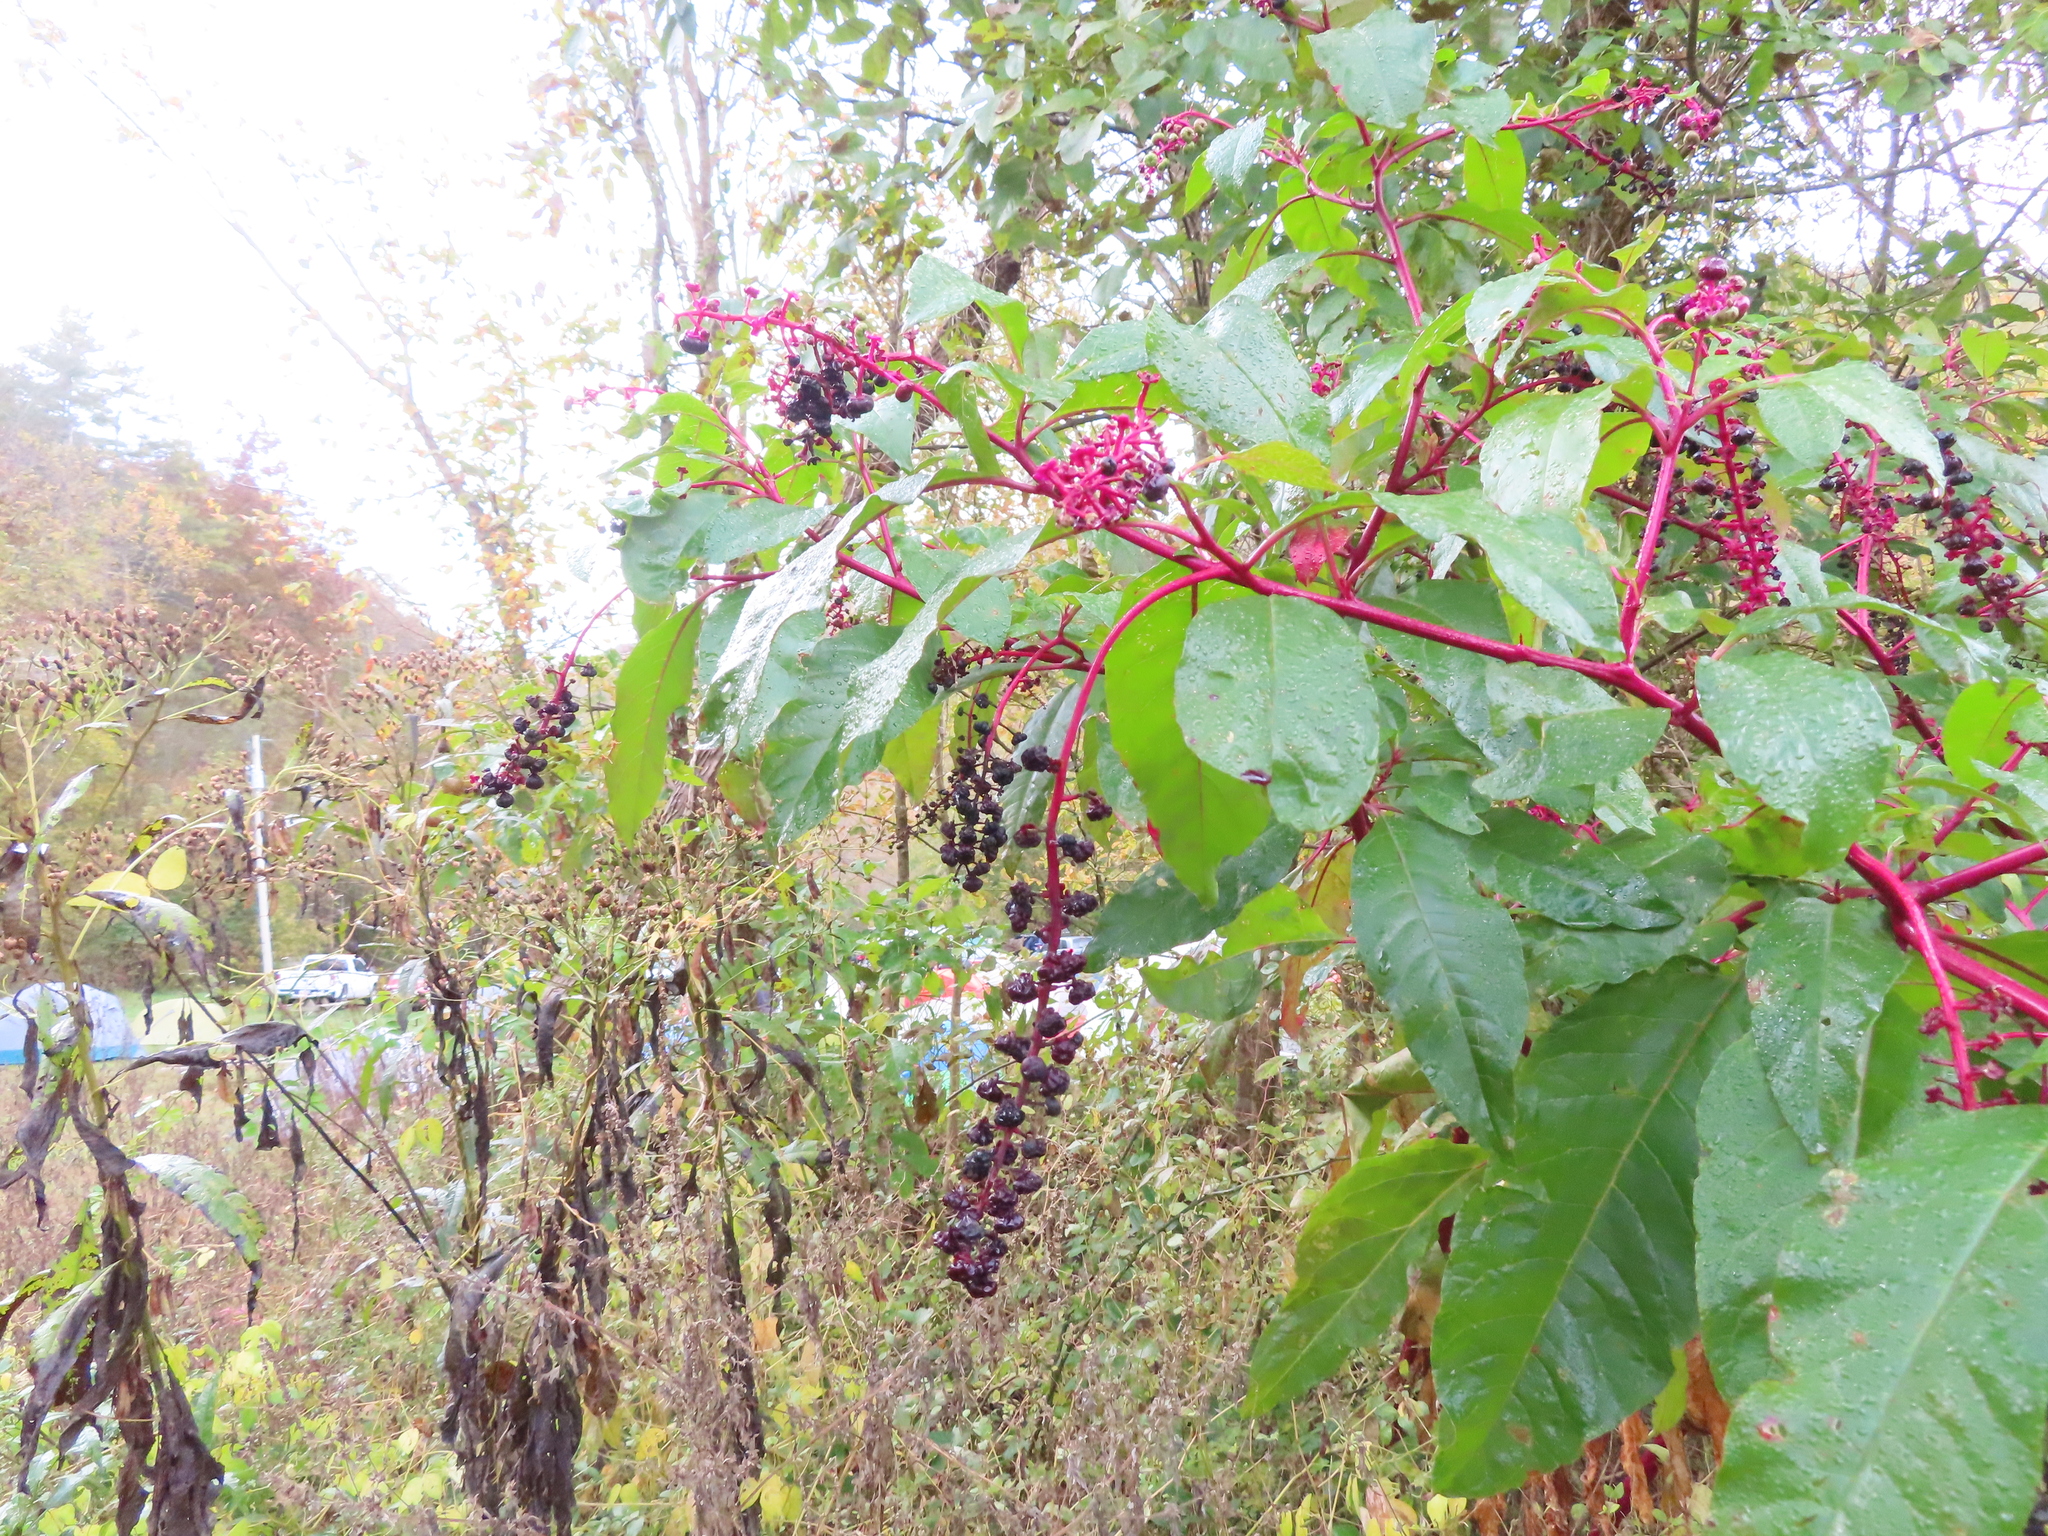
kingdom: Plantae
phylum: Tracheophyta
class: Magnoliopsida
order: Caryophyllales
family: Phytolaccaceae
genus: Phytolacca
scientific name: Phytolacca americana
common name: American pokeweed
